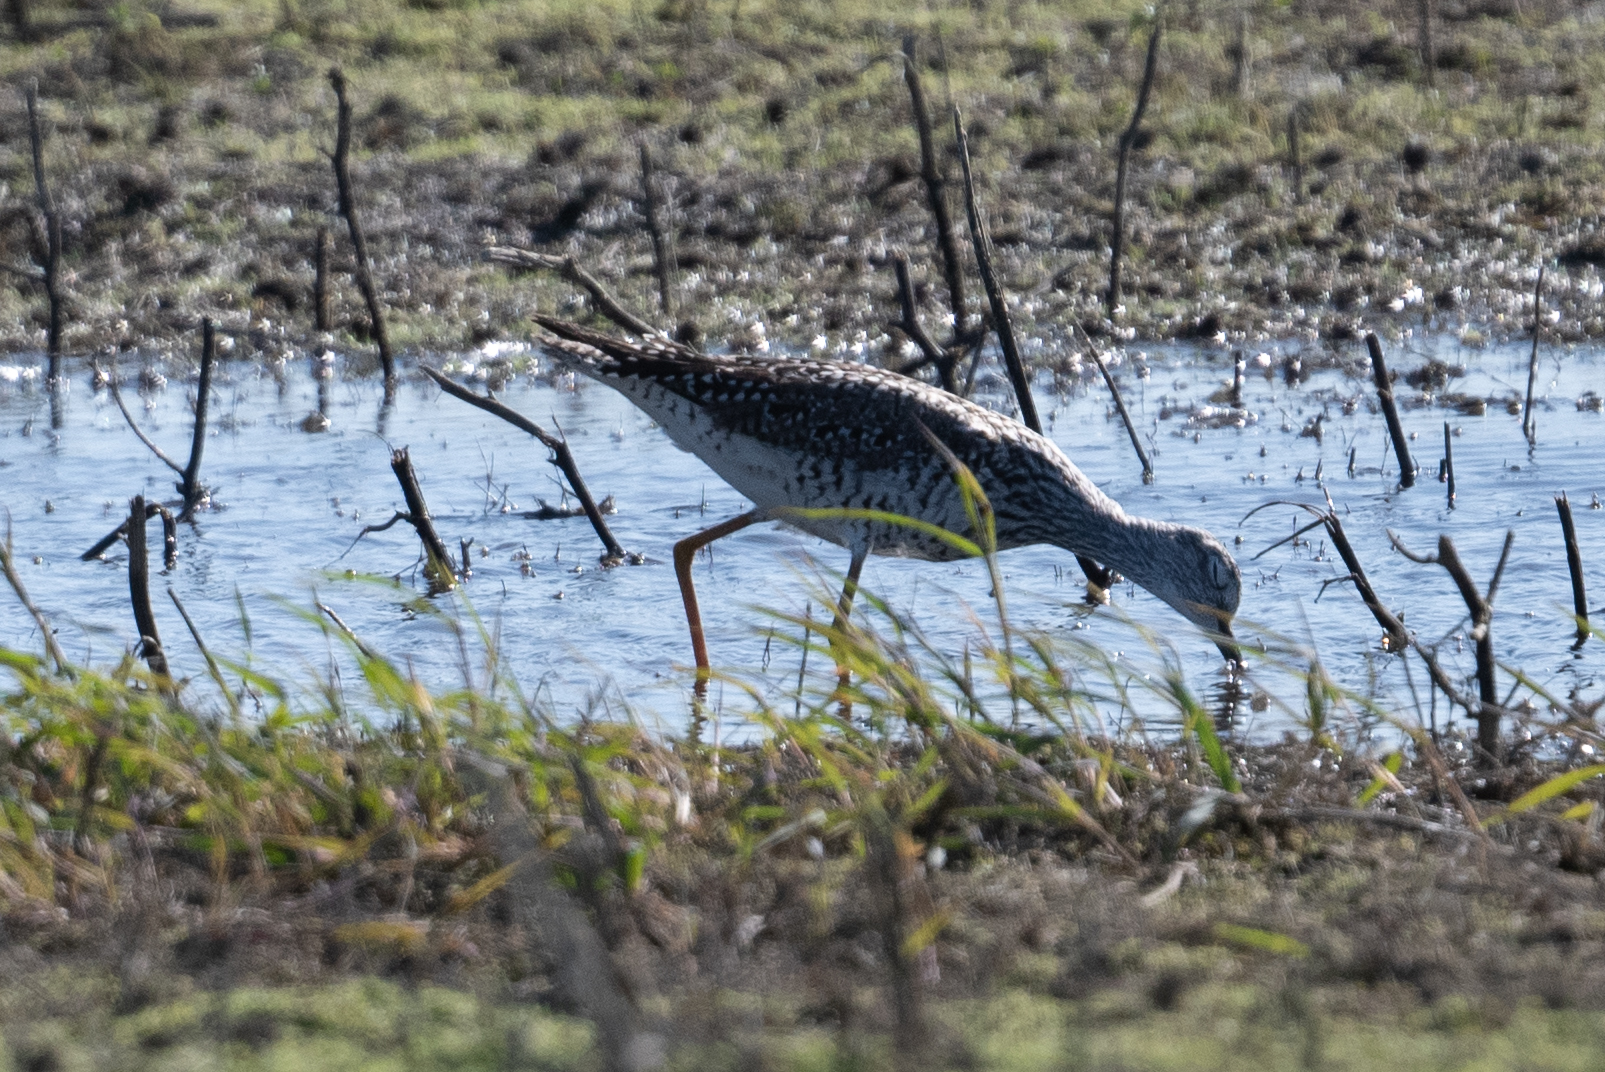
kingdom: Animalia
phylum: Chordata
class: Aves
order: Charadriiformes
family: Scolopacidae
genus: Tringa
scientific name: Tringa melanoleuca
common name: Greater yellowlegs
